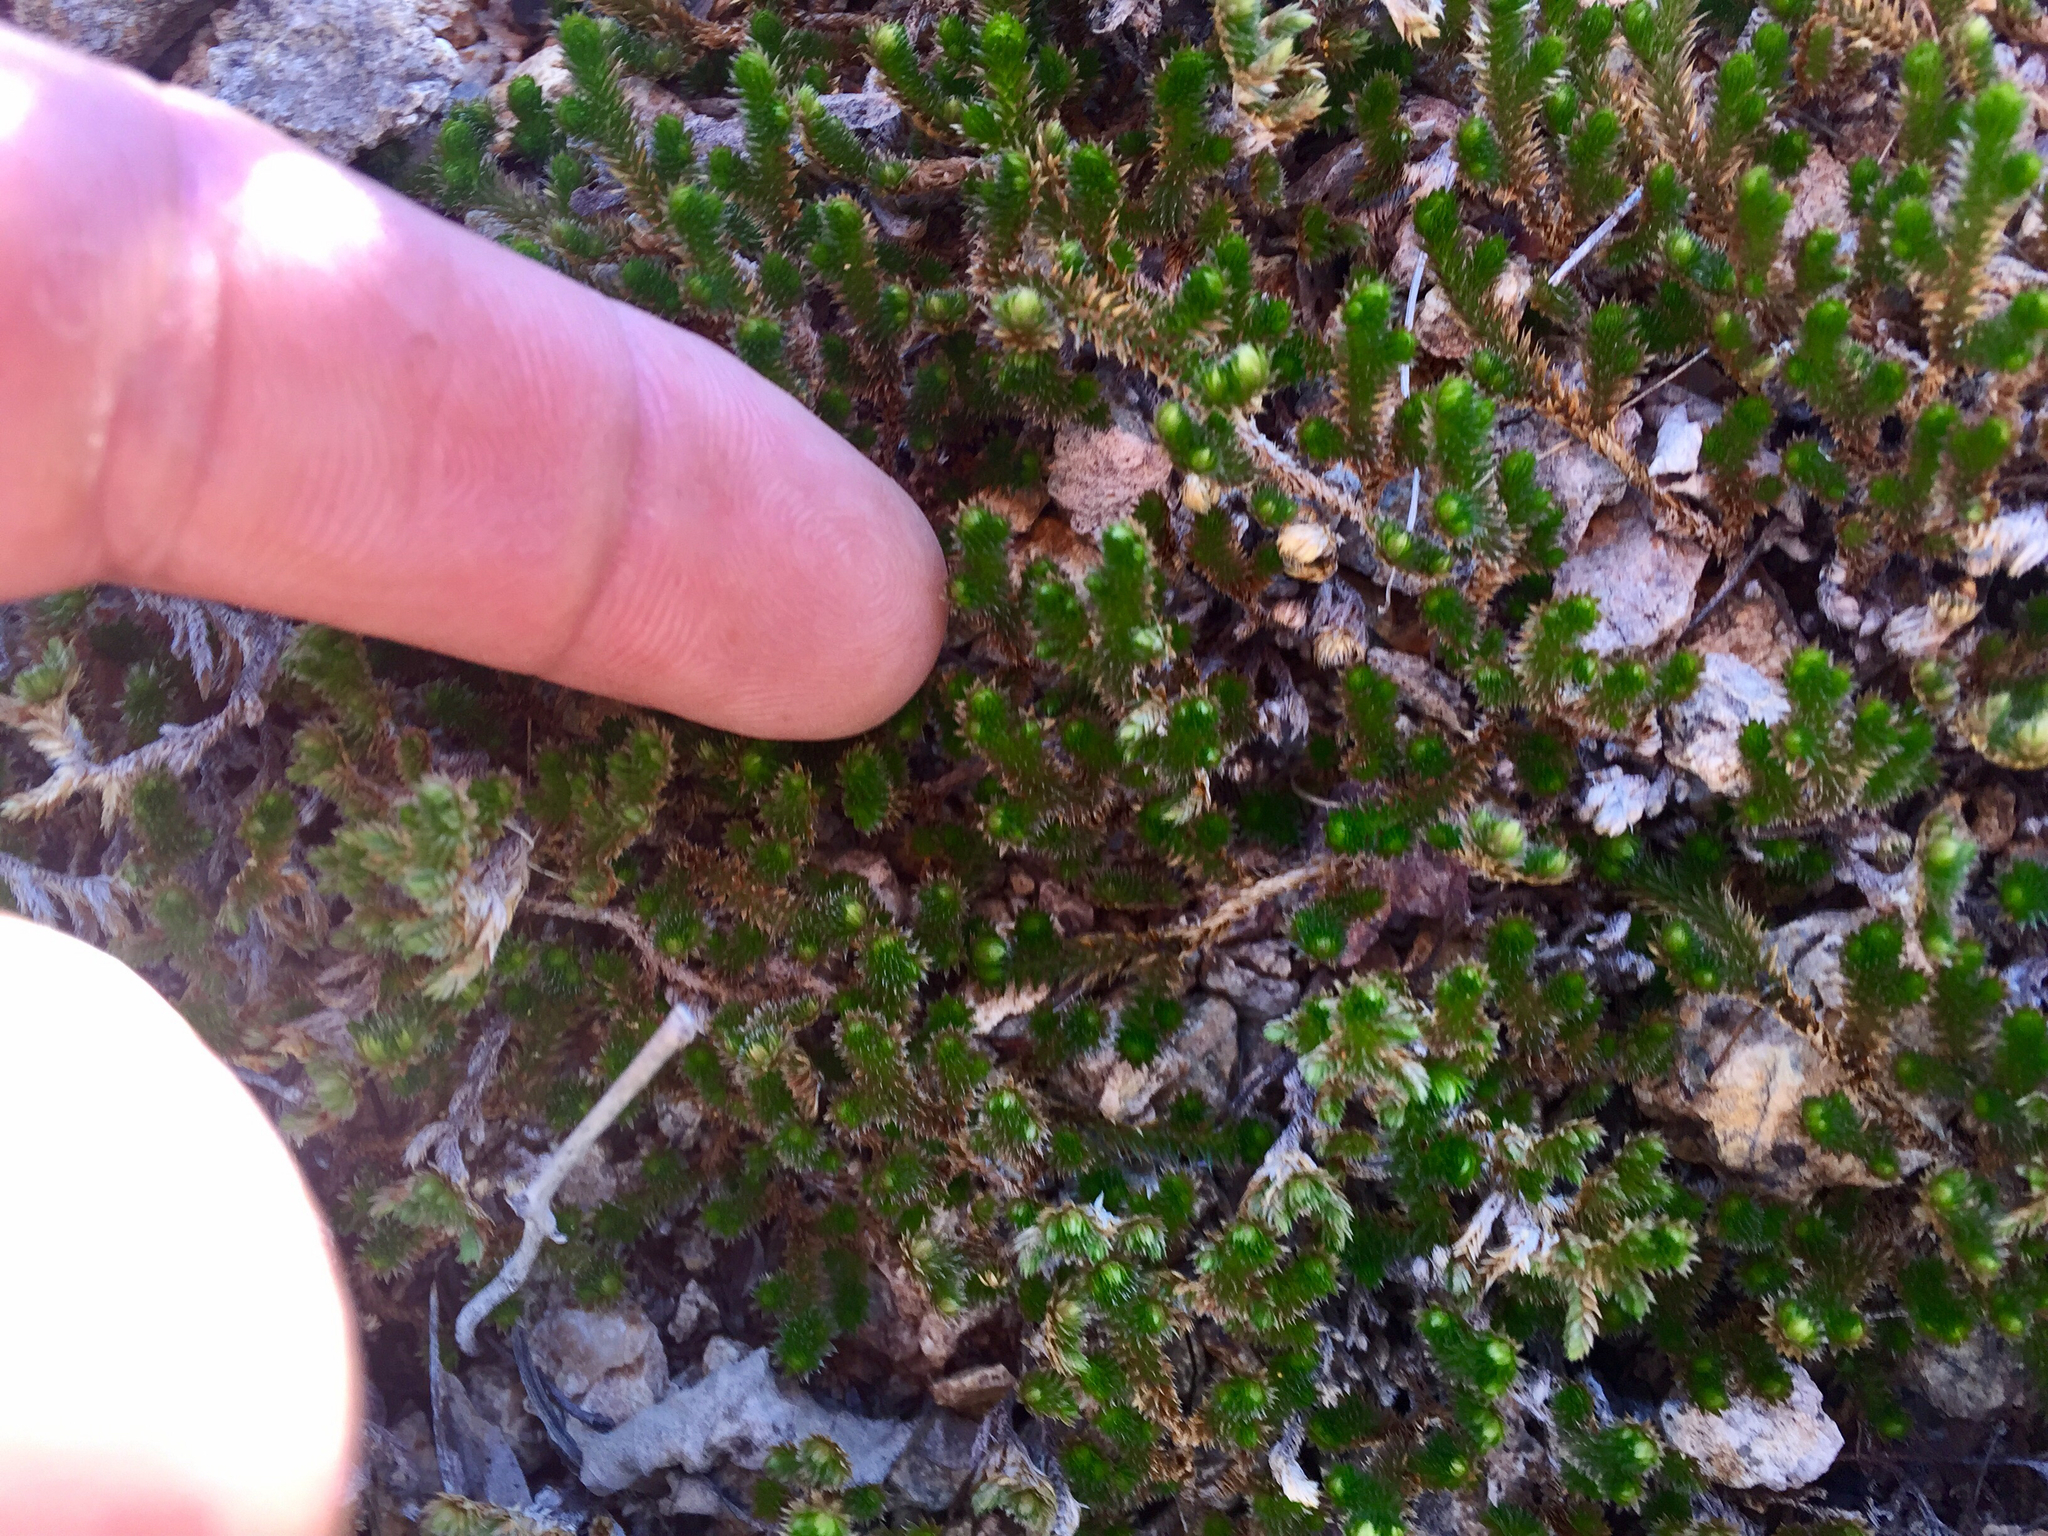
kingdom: Plantae
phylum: Tracheophyta
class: Lycopodiopsida
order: Selaginellales
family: Selaginellaceae
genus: Selaginella
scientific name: Selaginella arizonica
